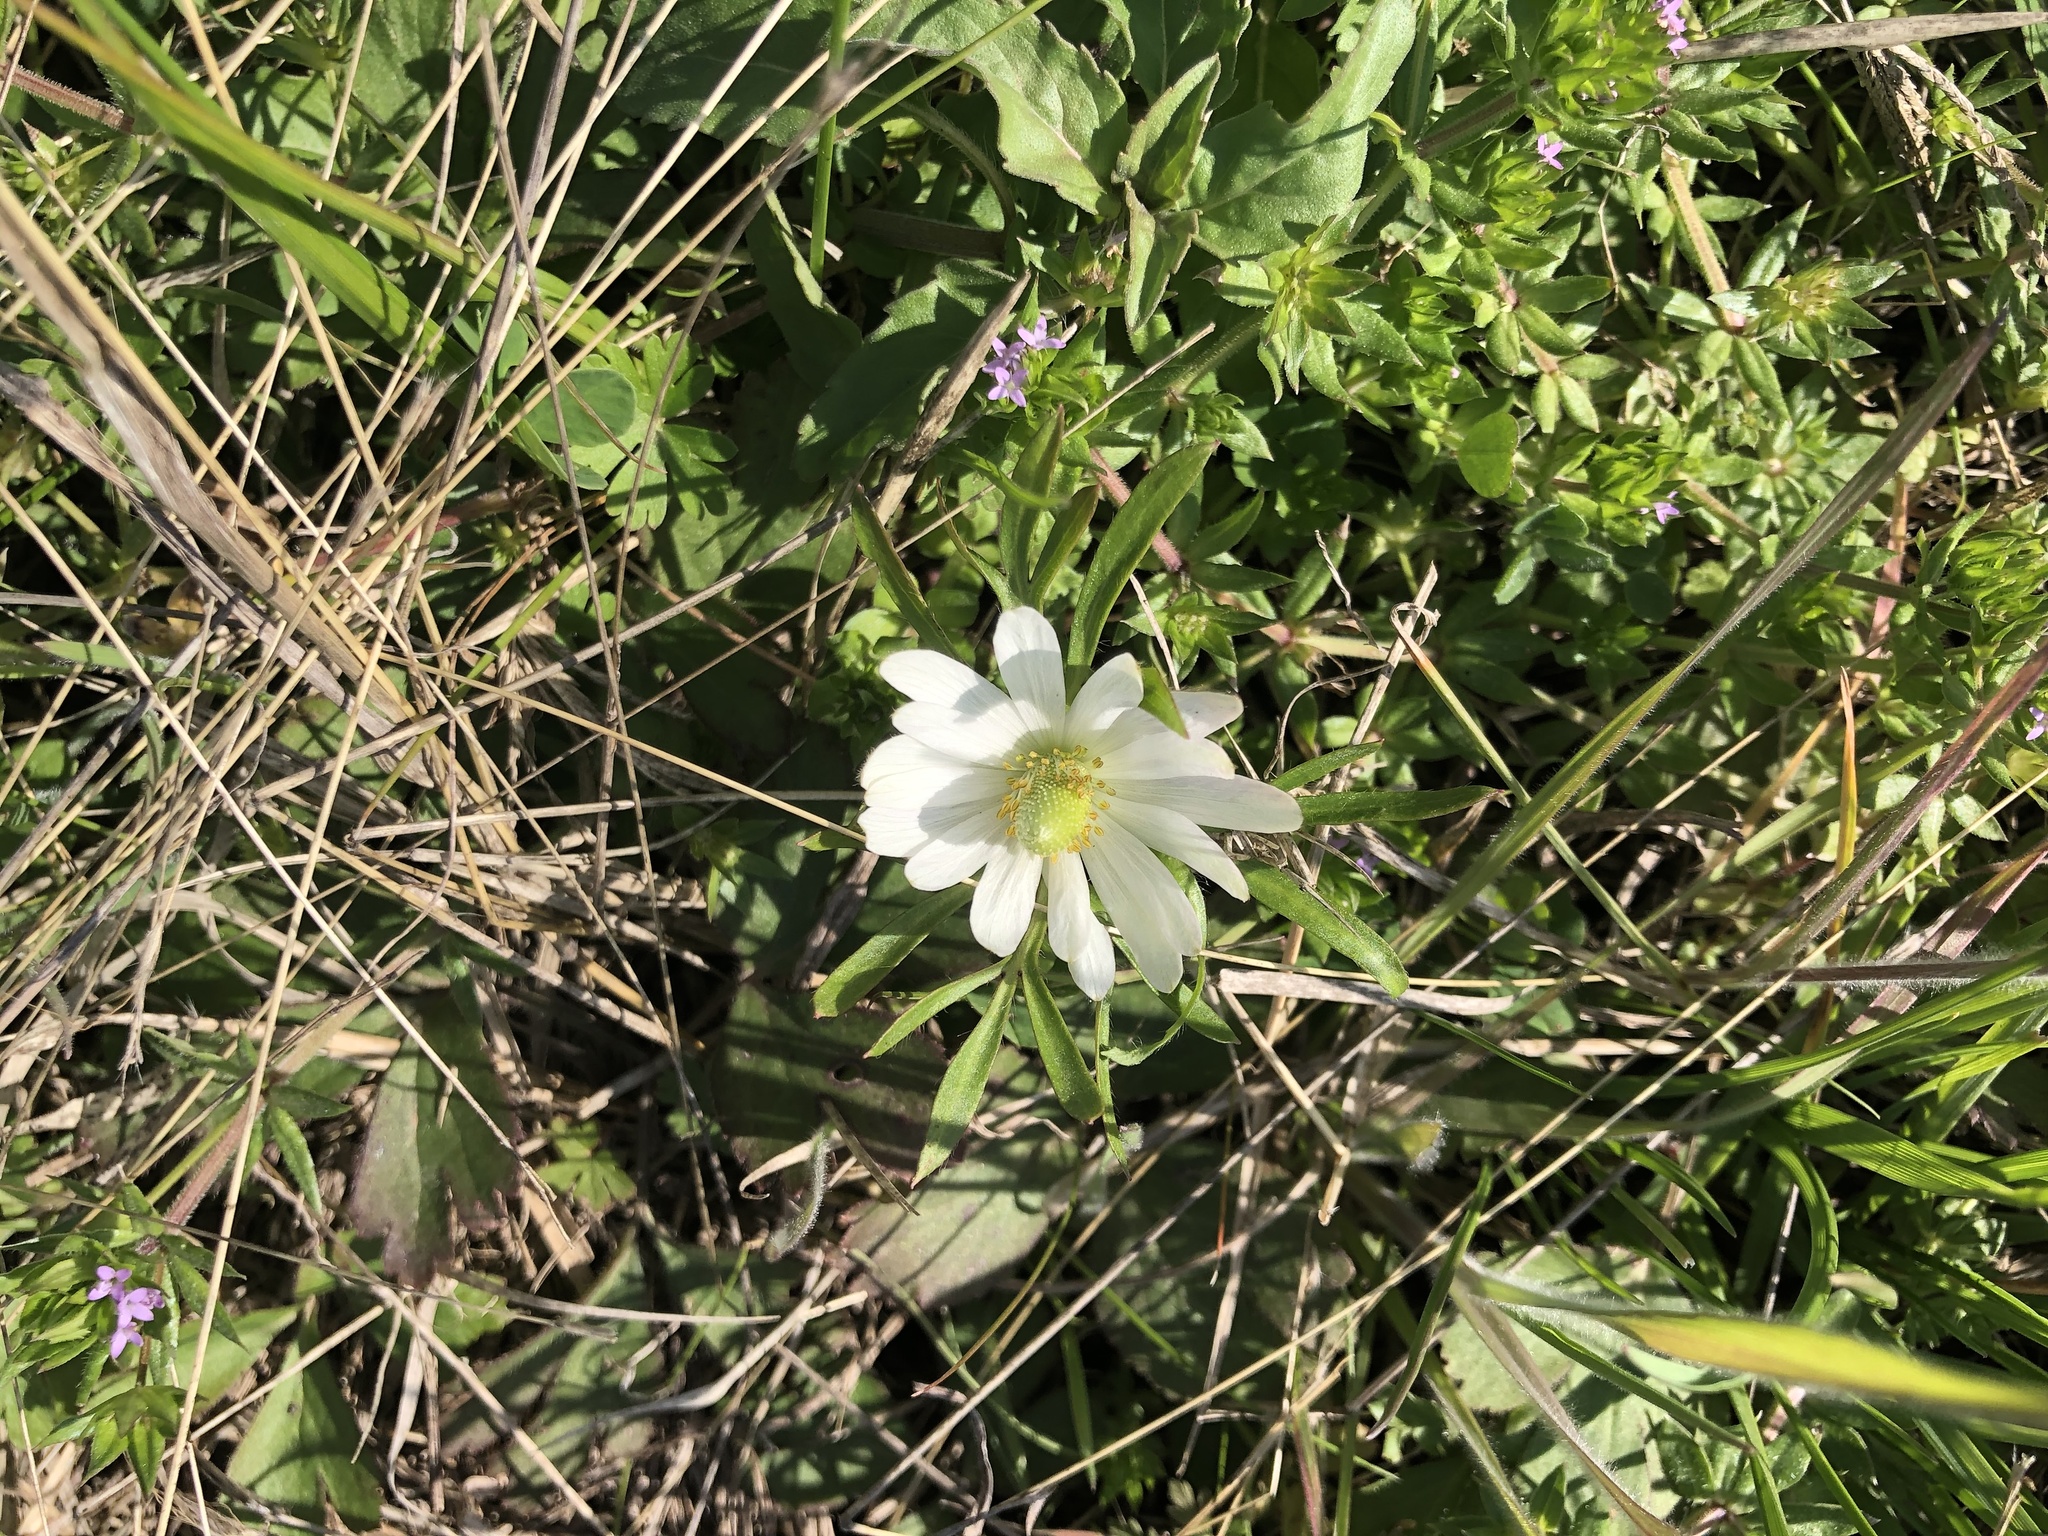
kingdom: Plantae
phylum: Tracheophyta
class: Magnoliopsida
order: Ranunculales
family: Ranunculaceae
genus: Anemone
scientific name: Anemone berlandieri
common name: Ten-petal anemone
